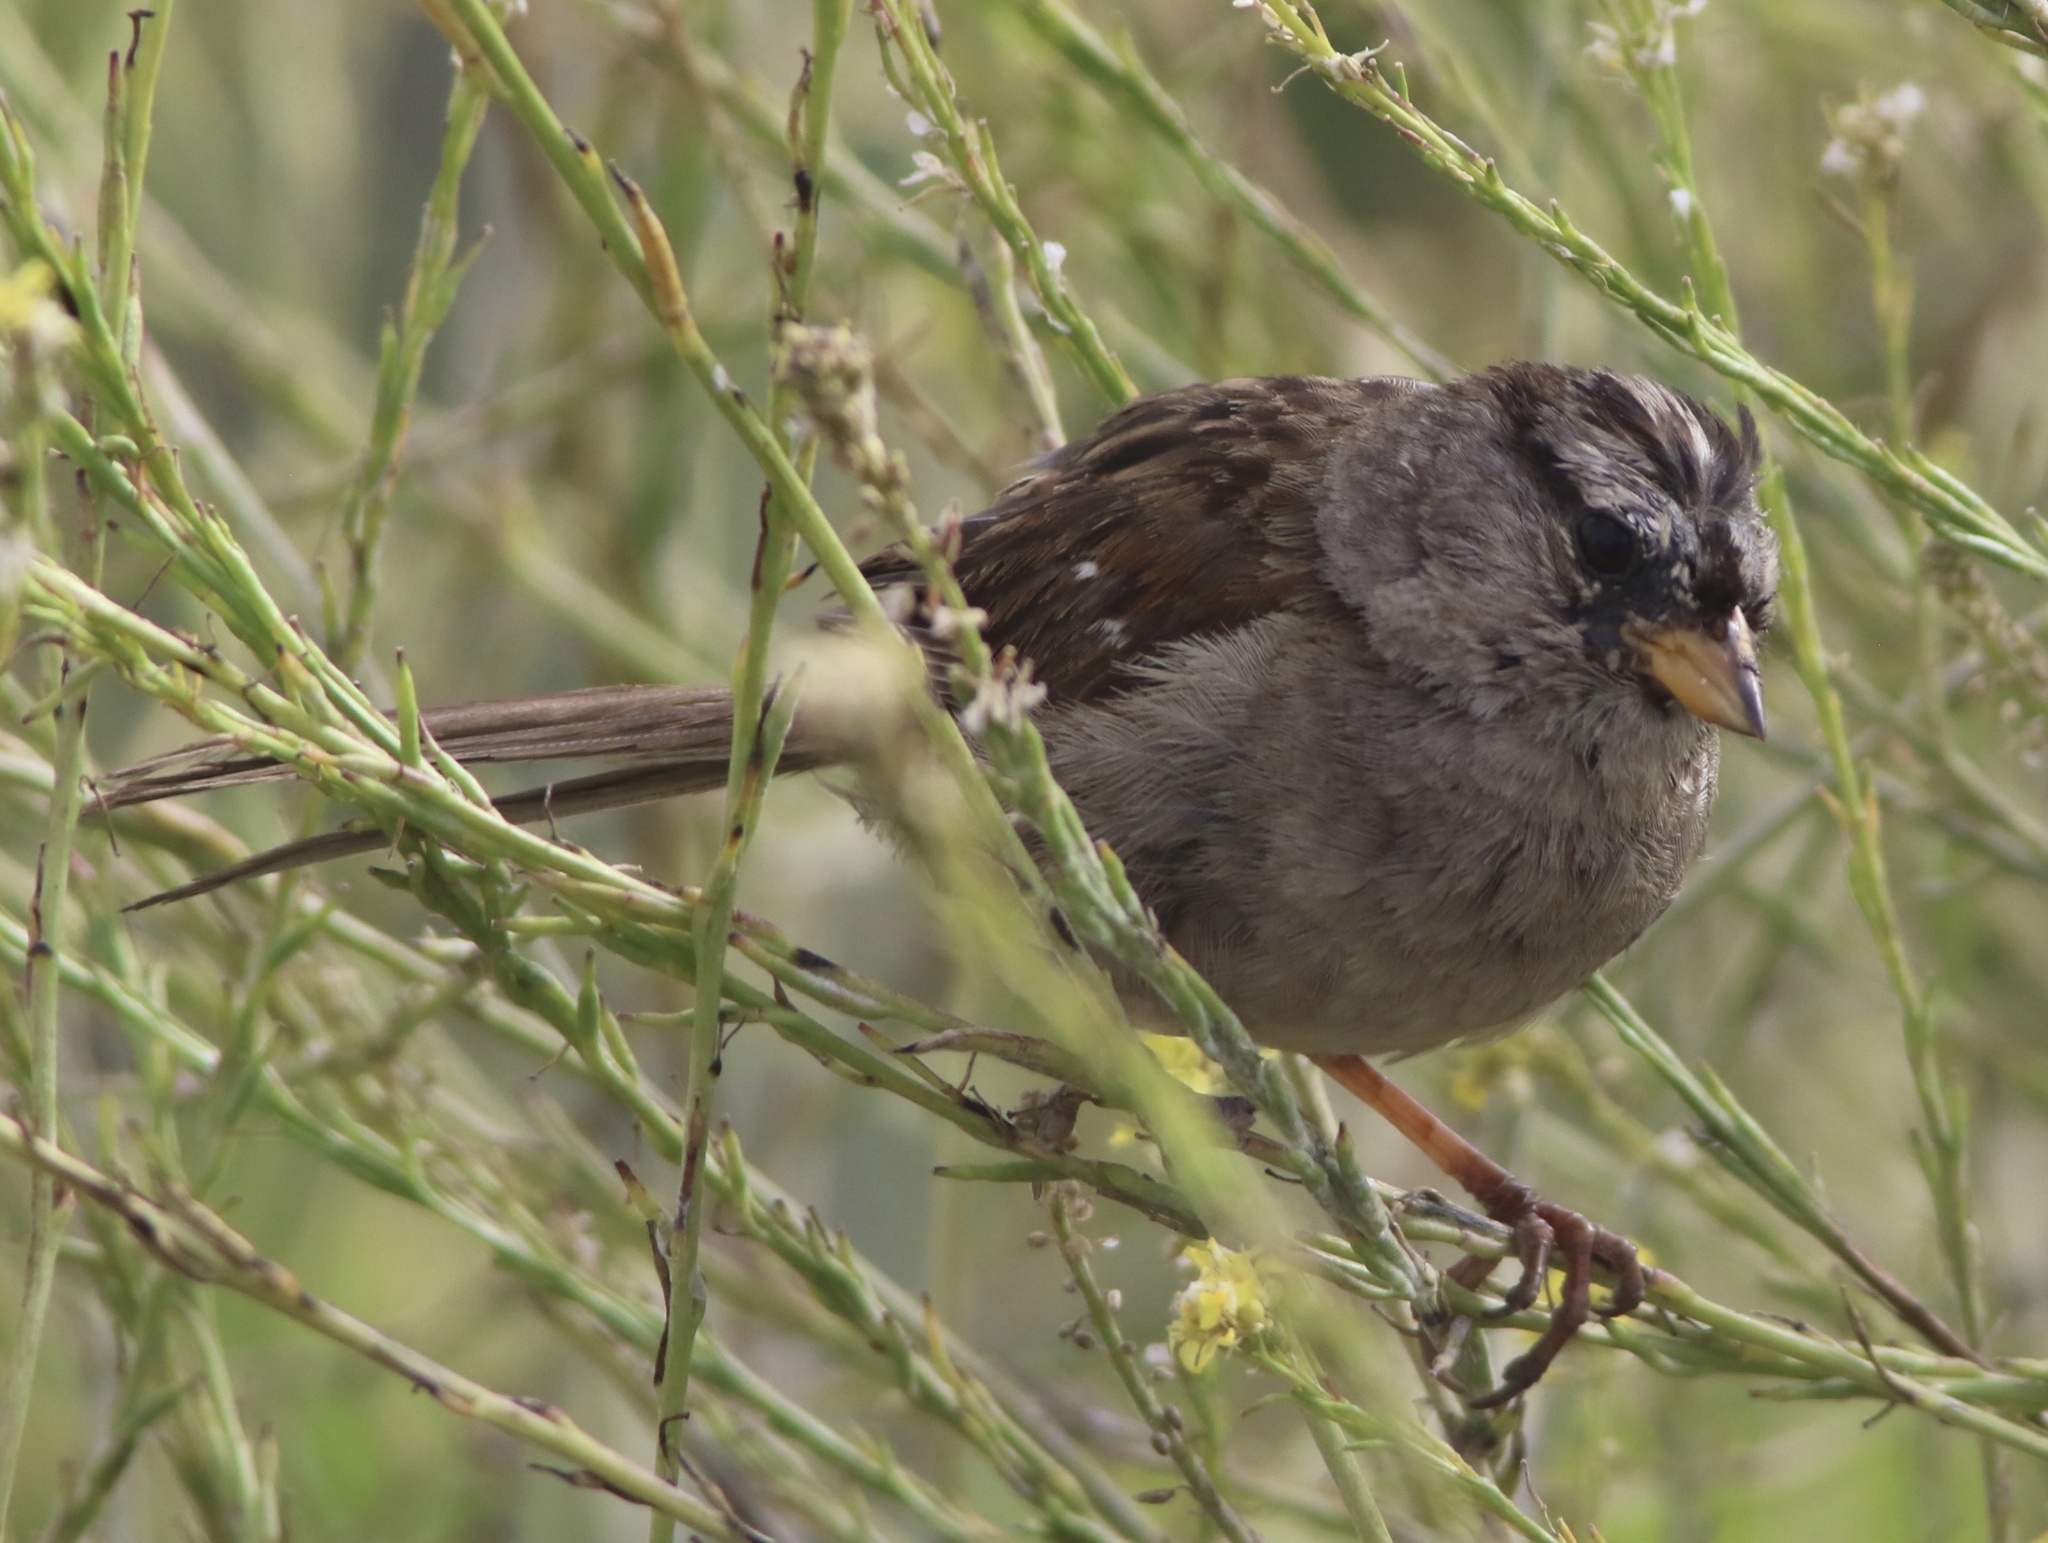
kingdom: Animalia
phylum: Chordata
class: Aves
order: Passeriformes
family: Passerellidae
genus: Zonotrichia
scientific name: Zonotrichia leucophrys
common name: White-crowned sparrow
